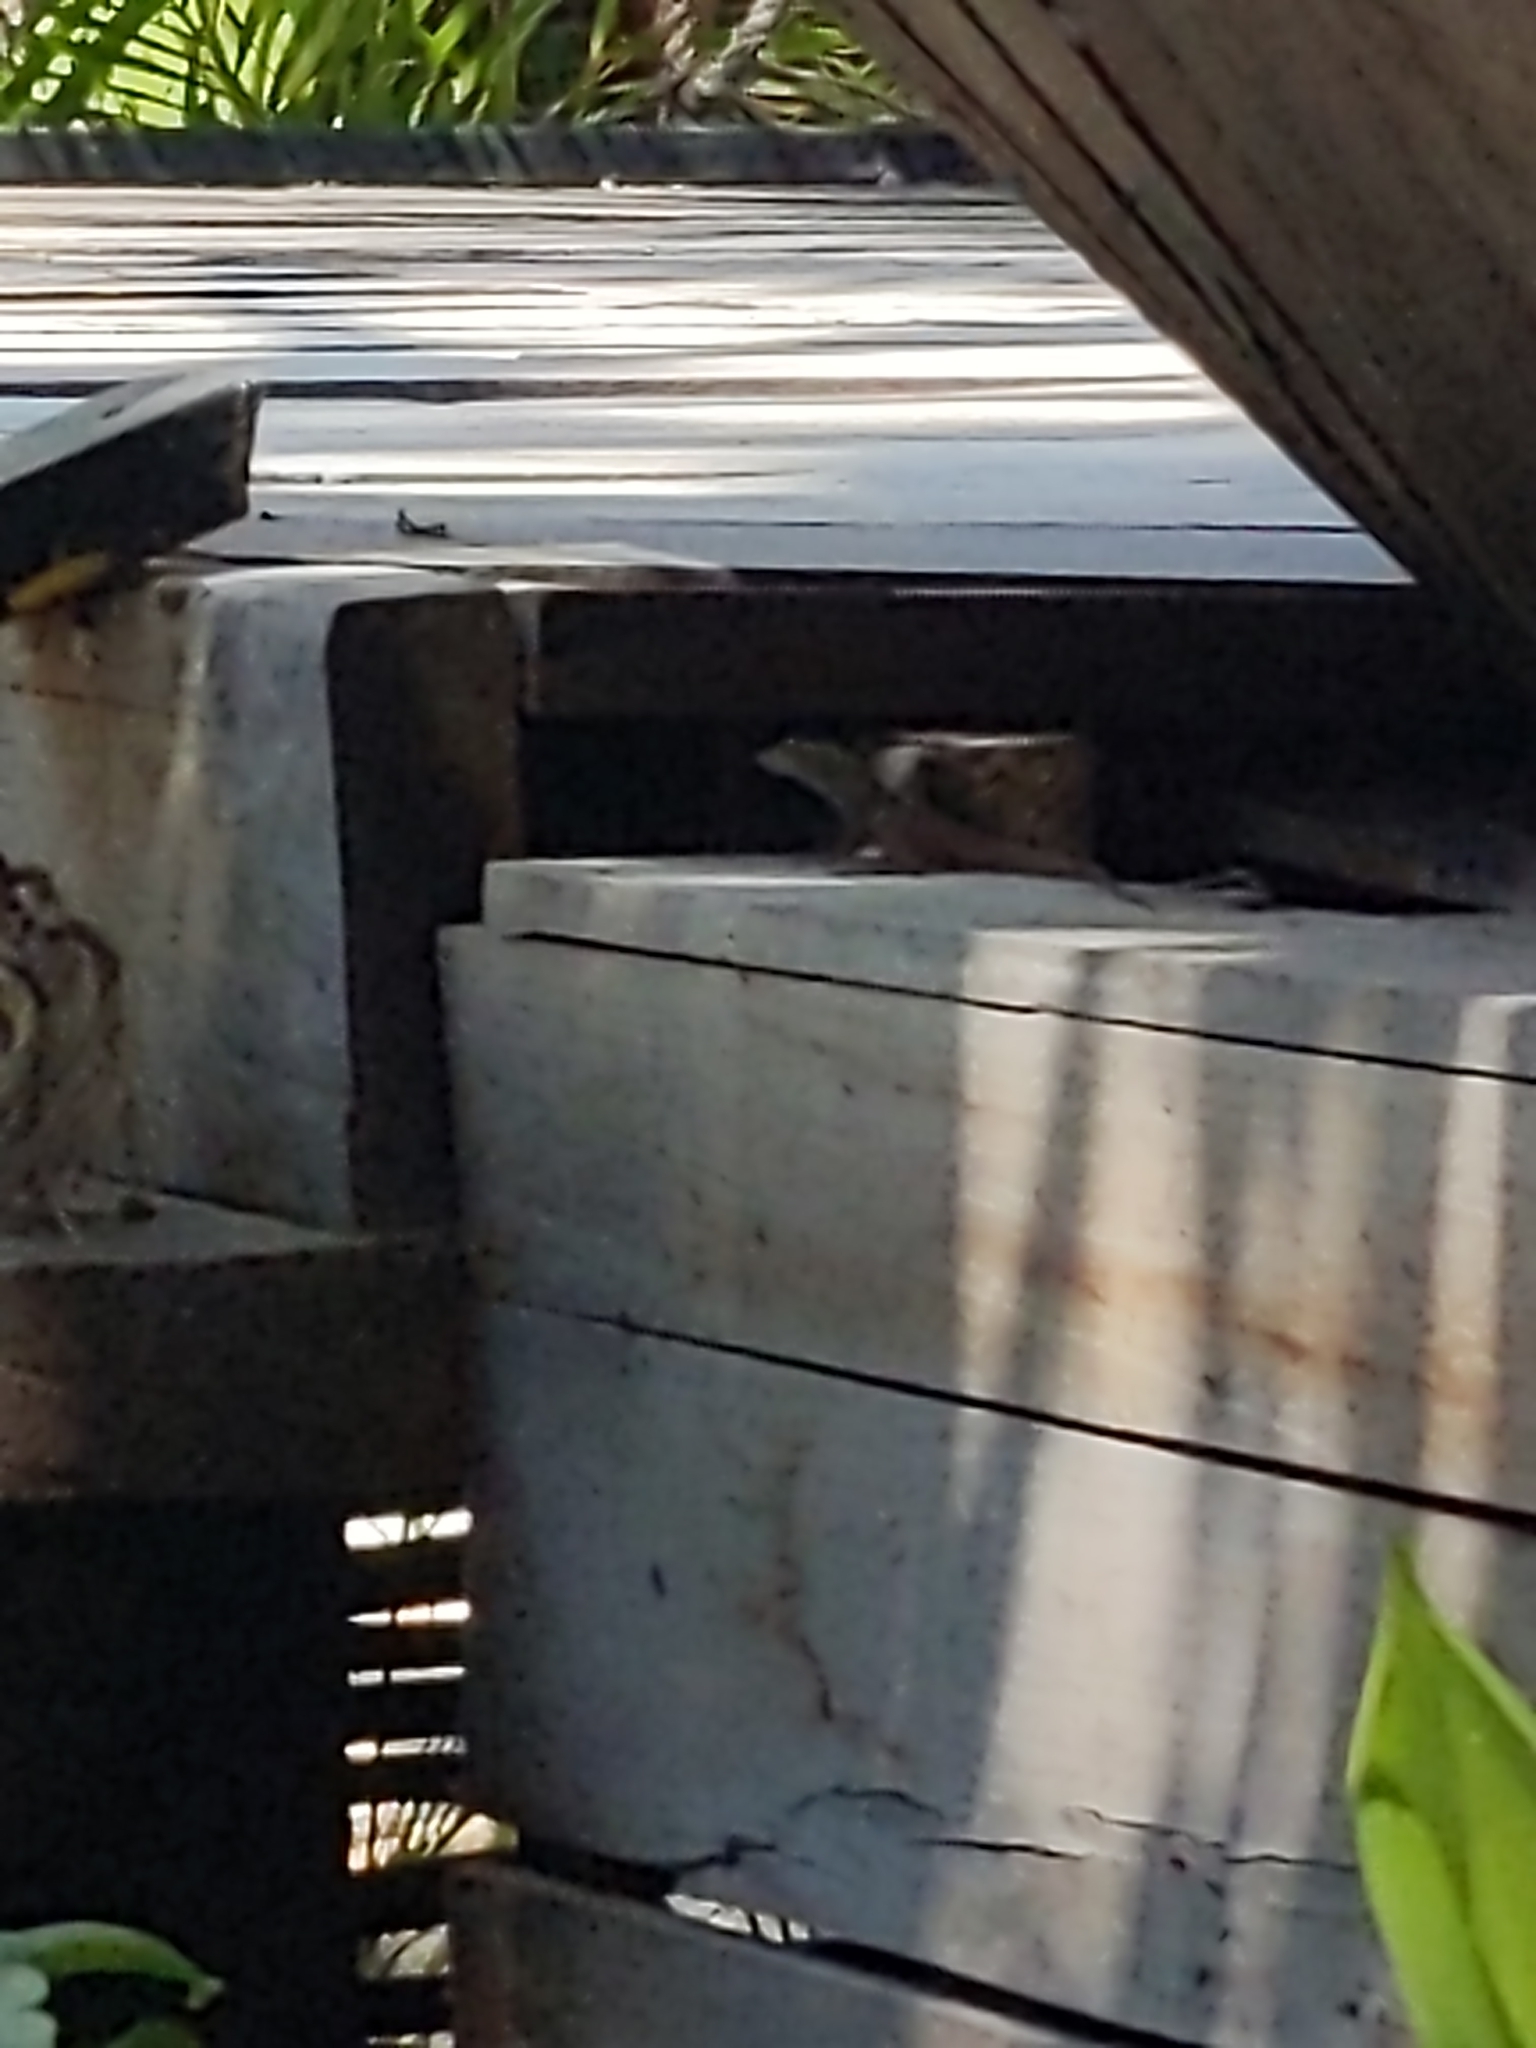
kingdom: Animalia
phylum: Chordata
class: Squamata
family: Dactyloidae
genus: Anolis
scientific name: Anolis sagrei
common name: Brown anole
